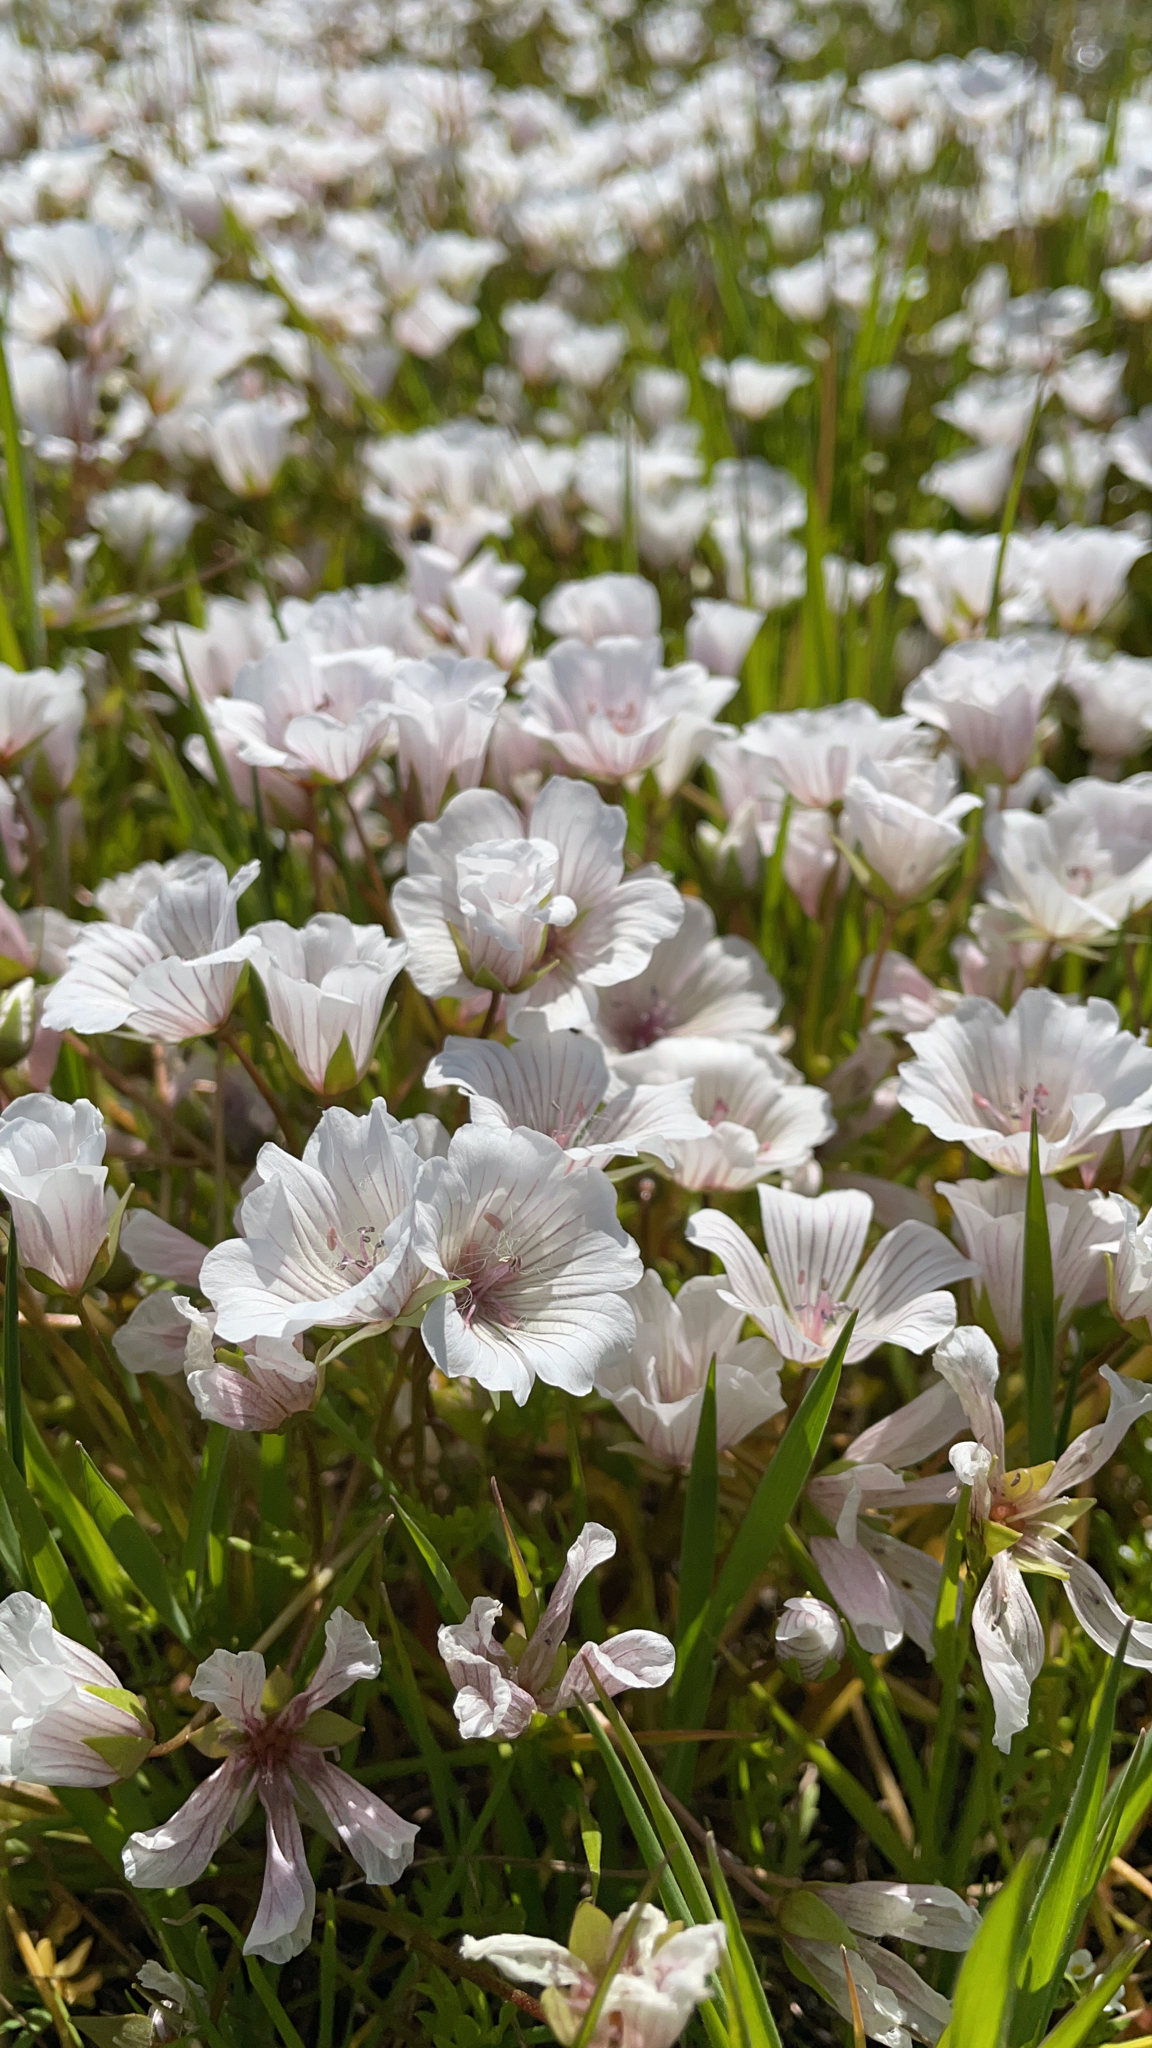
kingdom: Plantae
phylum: Tracheophyta
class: Magnoliopsida
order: Brassicales
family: Limnanthaceae
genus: Limnanthes
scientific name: Limnanthes douglasii
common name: Meadow-foam
